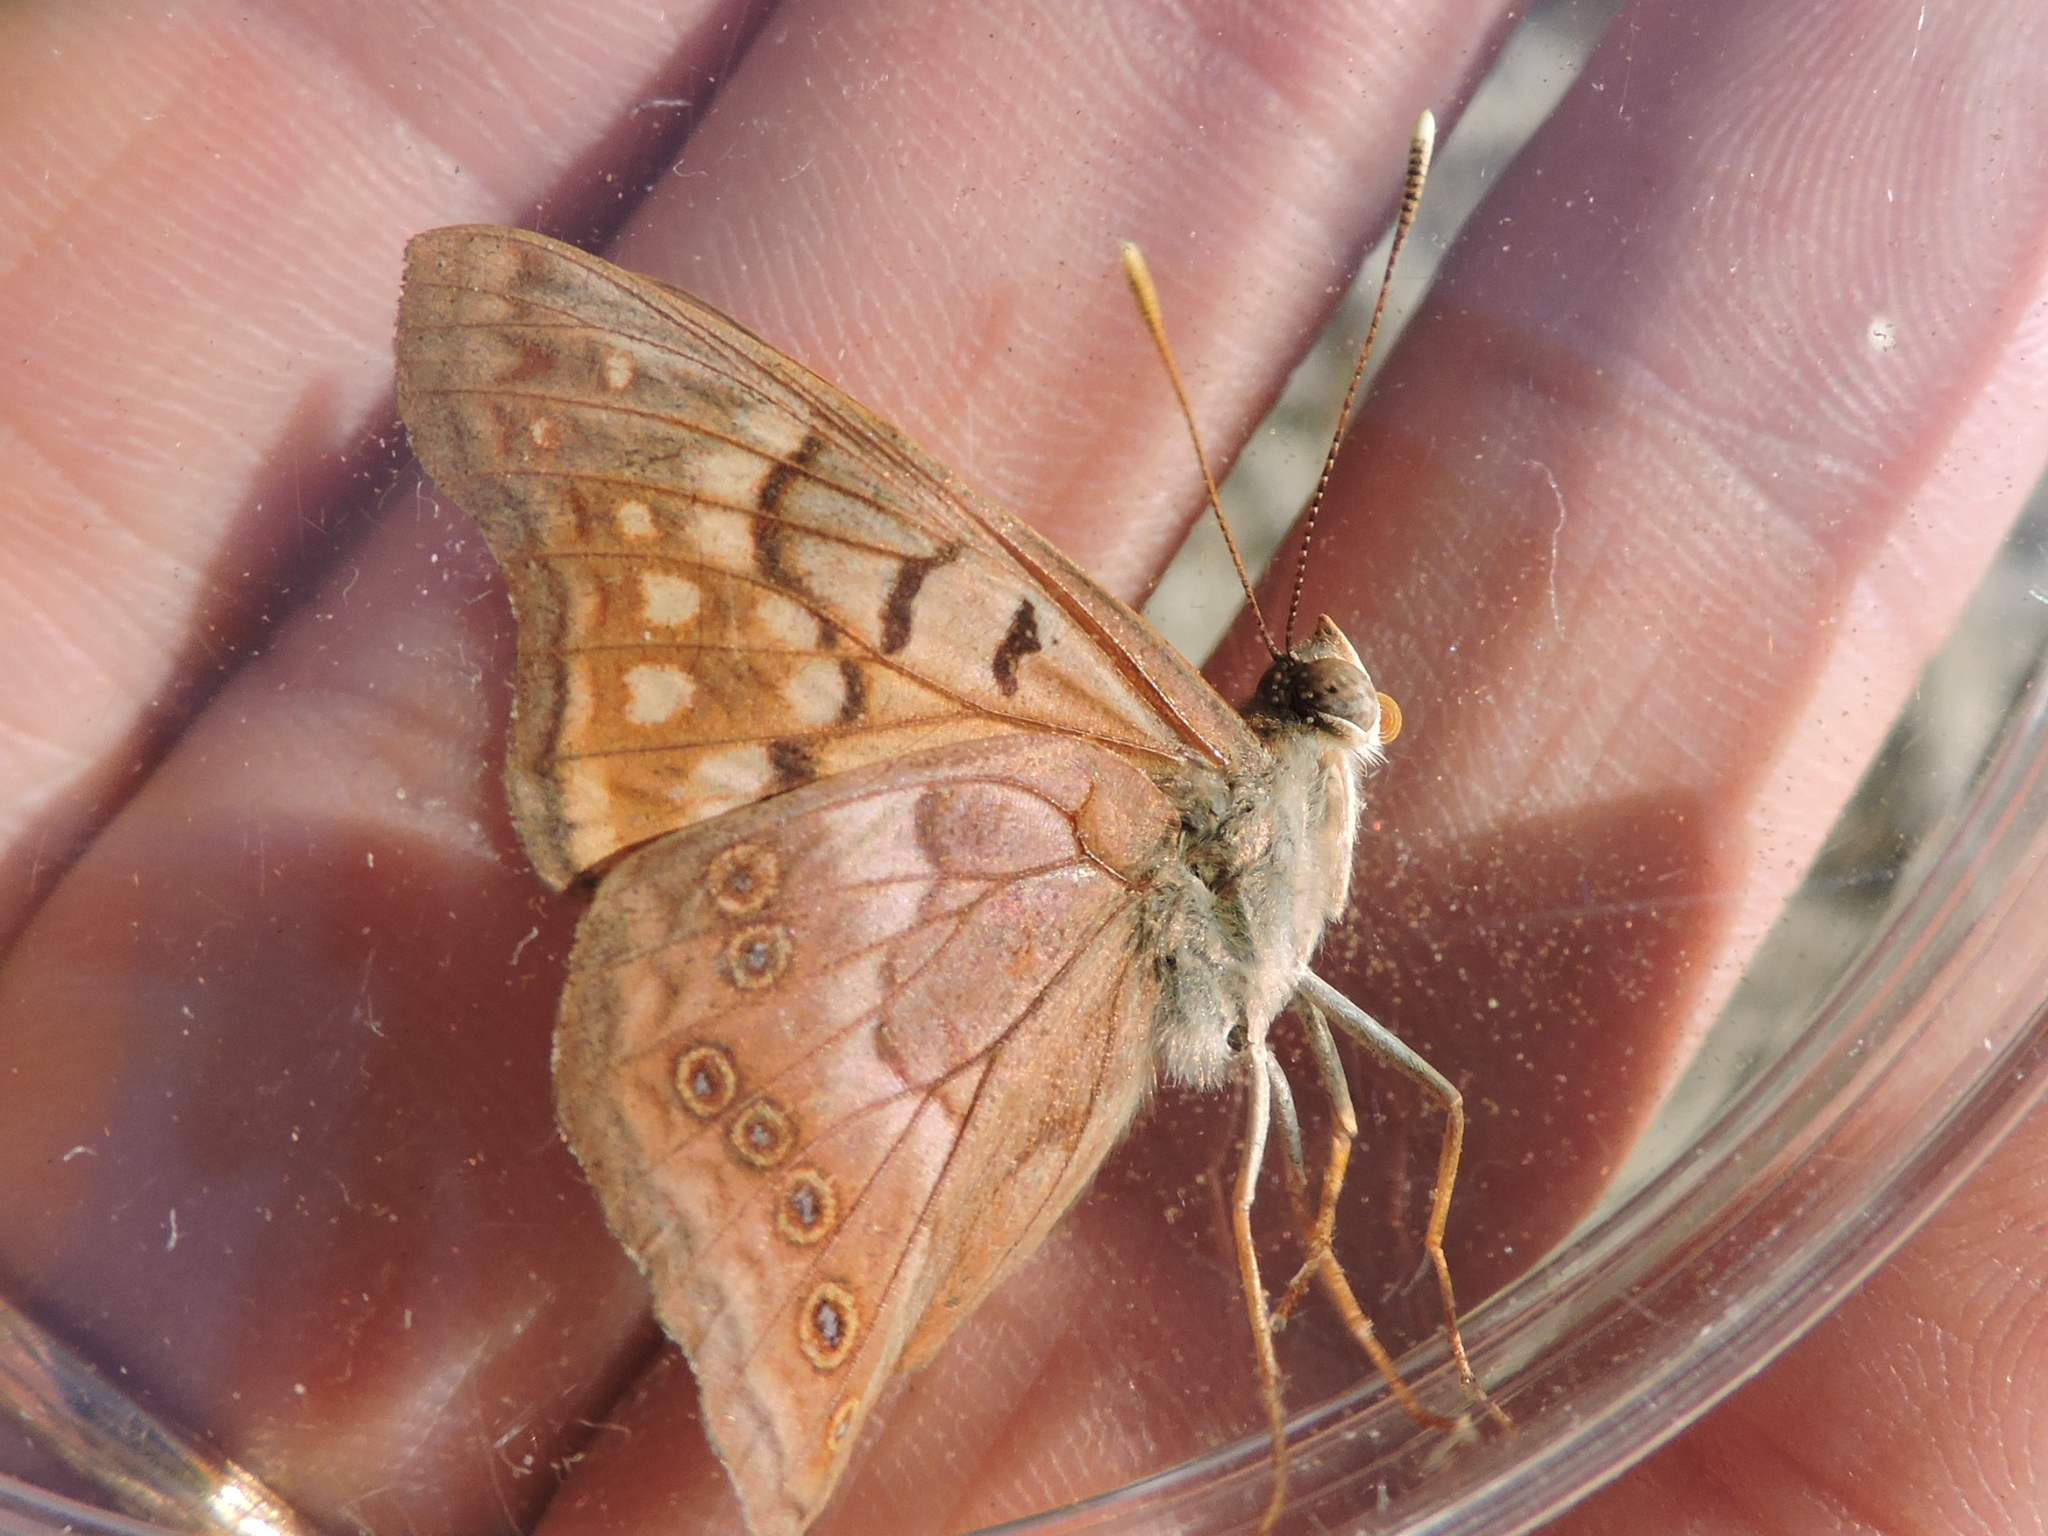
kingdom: Animalia
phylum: Arthropoda
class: Insecta
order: Lepidoptera
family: Nymphalidae
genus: Asterocampa
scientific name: Asterocampa clyton
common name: Tawny emperor
